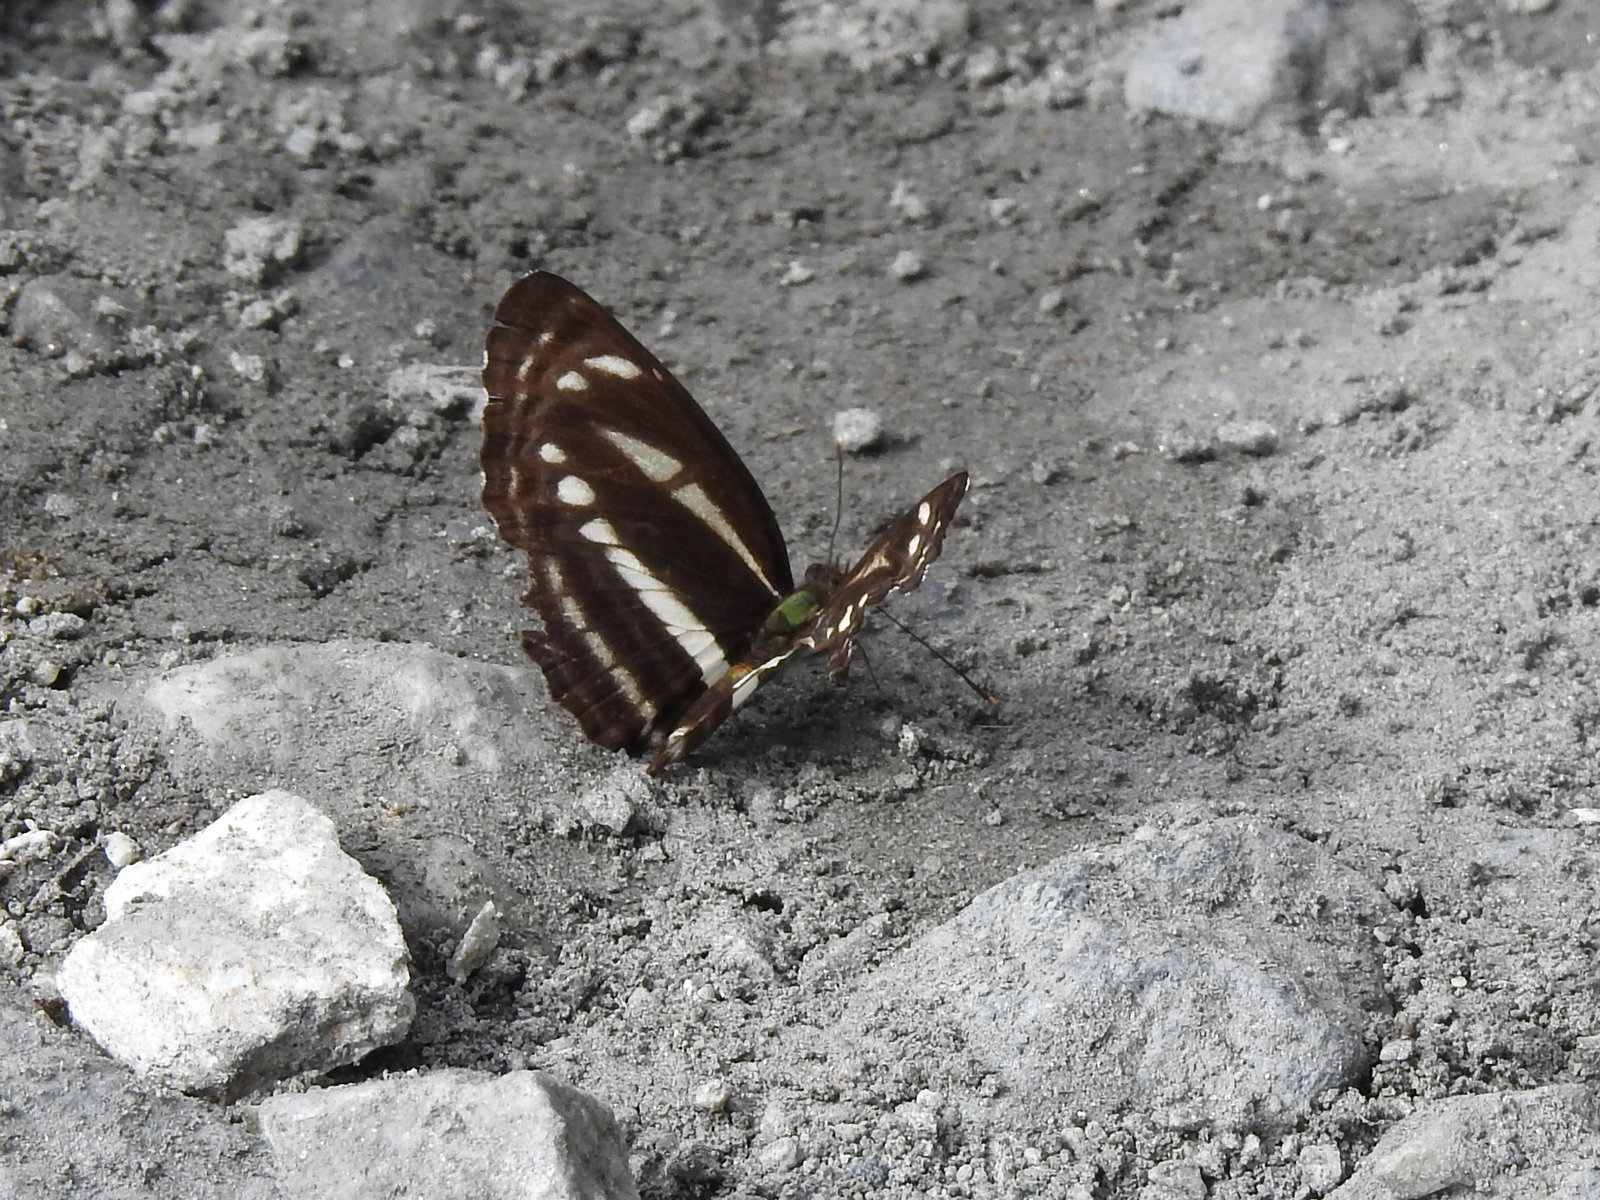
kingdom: Animalia
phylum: Arthropoda
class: Insecta
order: Lepidoptera
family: Nymphalidae
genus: Neptis
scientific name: Neptis clinia
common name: Southern sullied sailer
